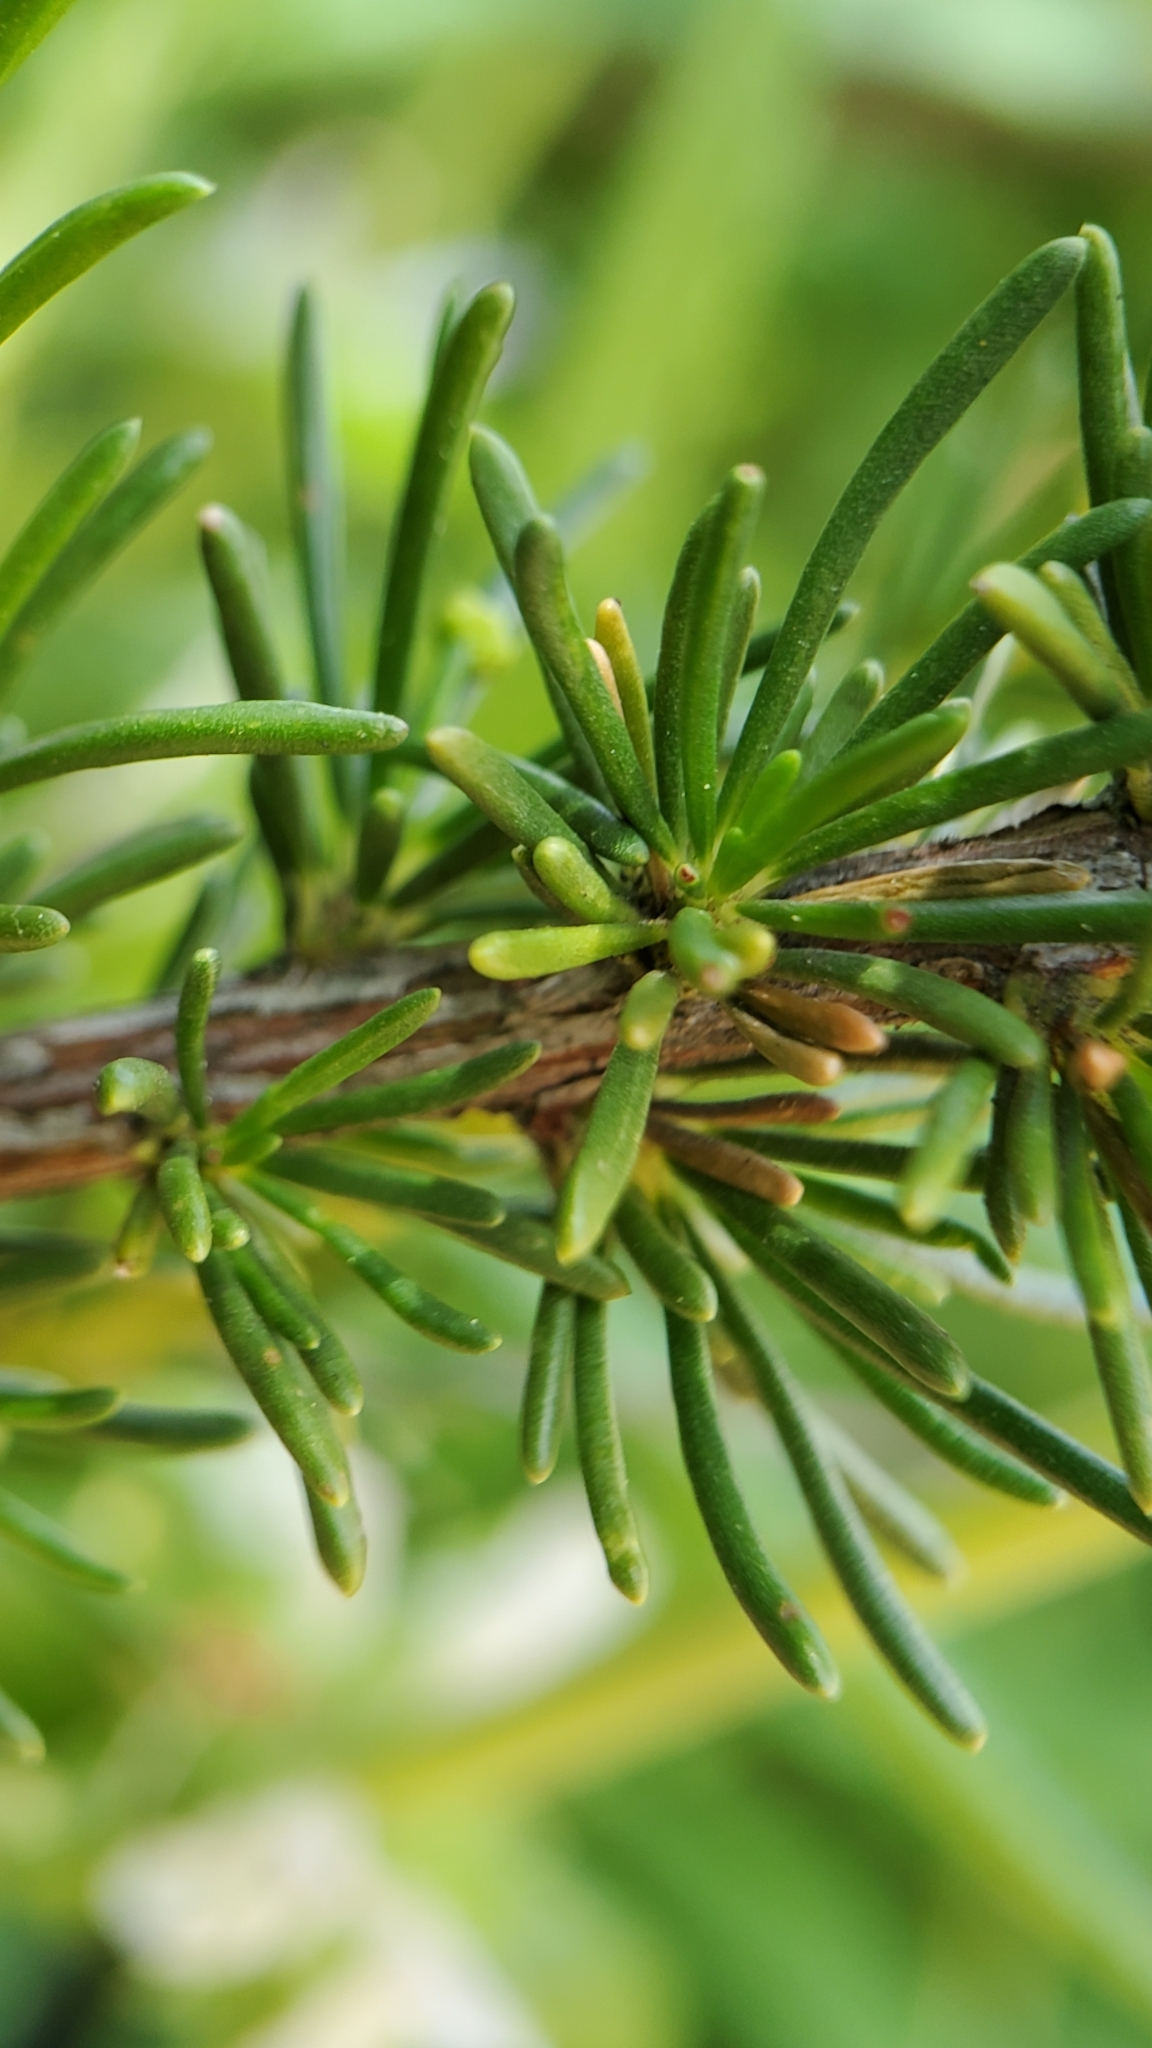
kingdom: Plantae
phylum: Tracheophyta
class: Magnoliopsida
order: Rosales
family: Rosaceae
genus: Adenostoma
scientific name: Adenostoma fasciculatum
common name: Chamise
